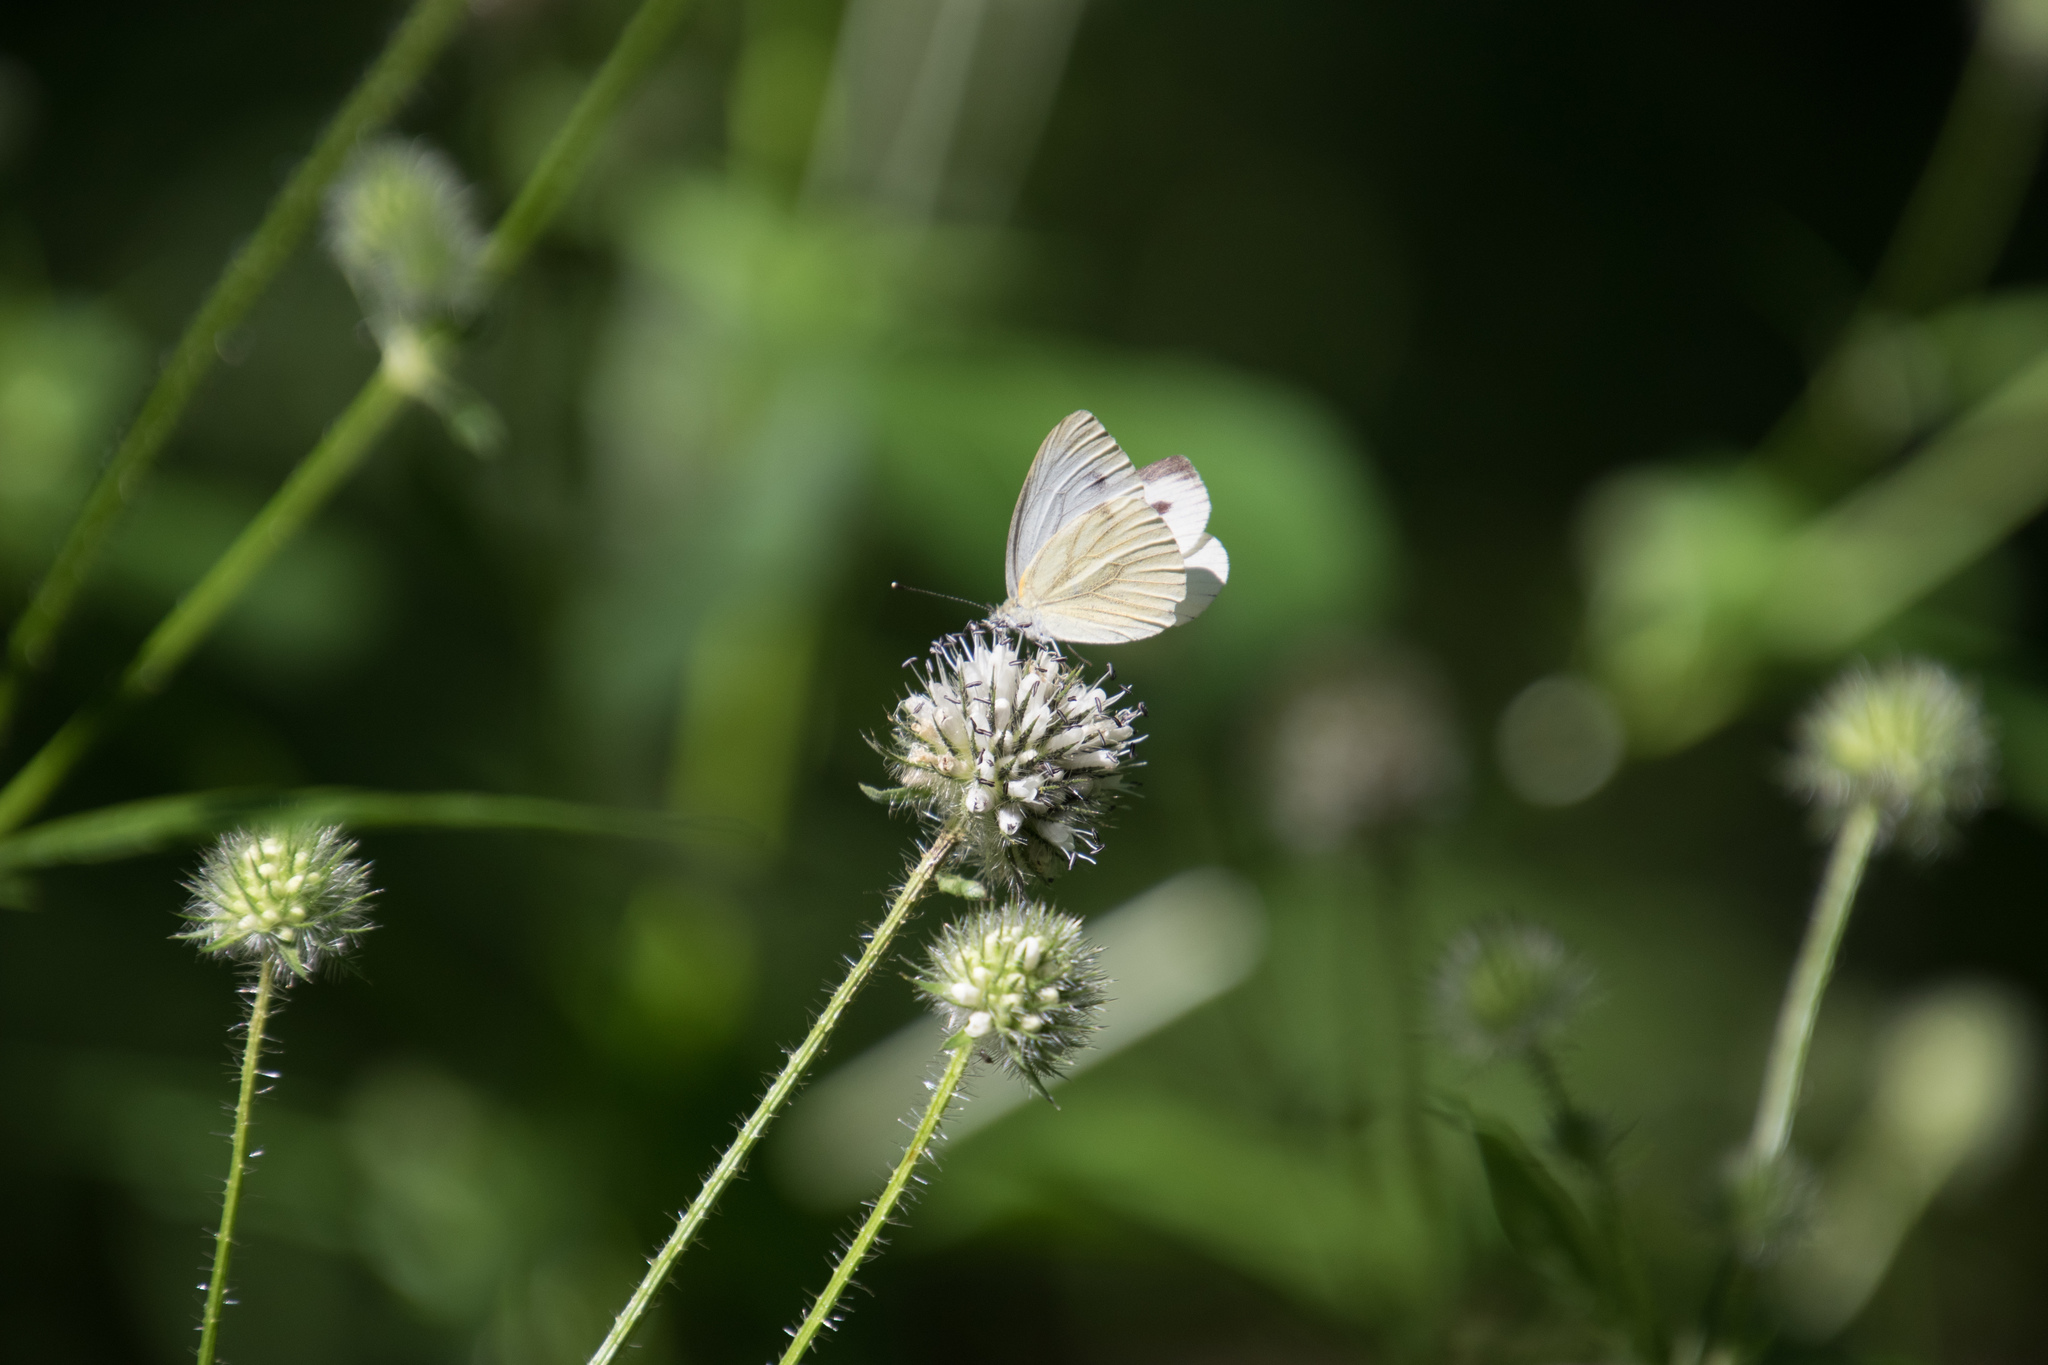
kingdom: Animalia
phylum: Arthropoda
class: Insecta
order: Lepidoptera
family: Pieridae
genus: Pieris
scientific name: Pieris napi
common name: Green-veined white
